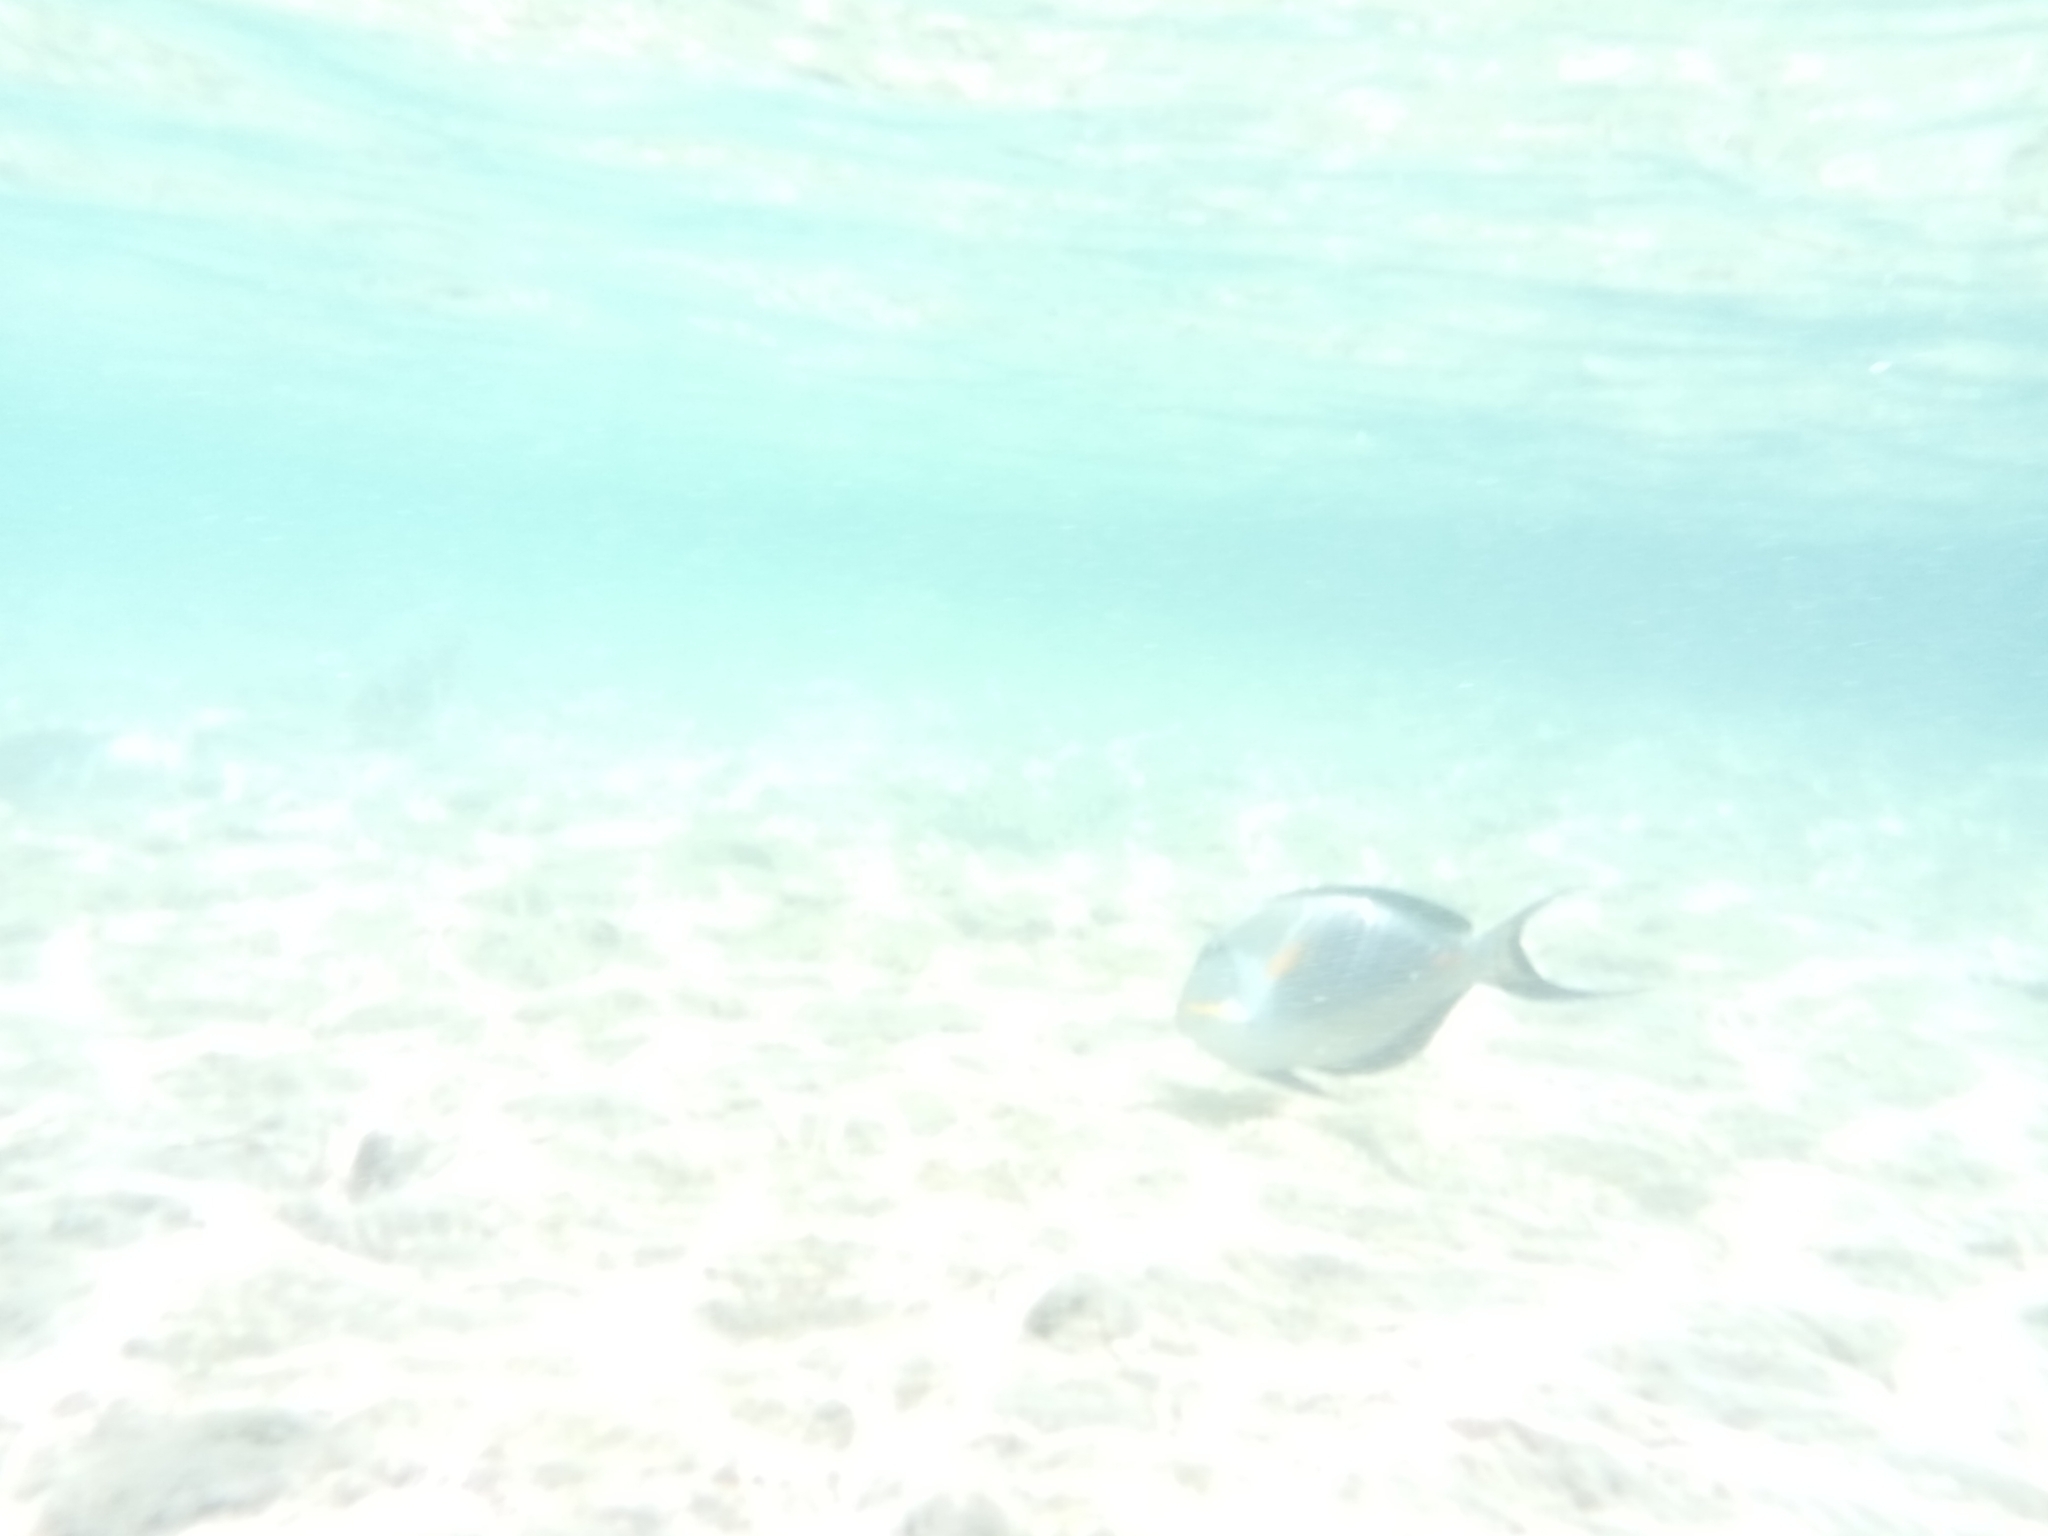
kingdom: Animalia
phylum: Chordata
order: Perciformes
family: Acanthuridae
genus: Acanthurus
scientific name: Acanthurus sohal
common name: Red sea surgeonfish
